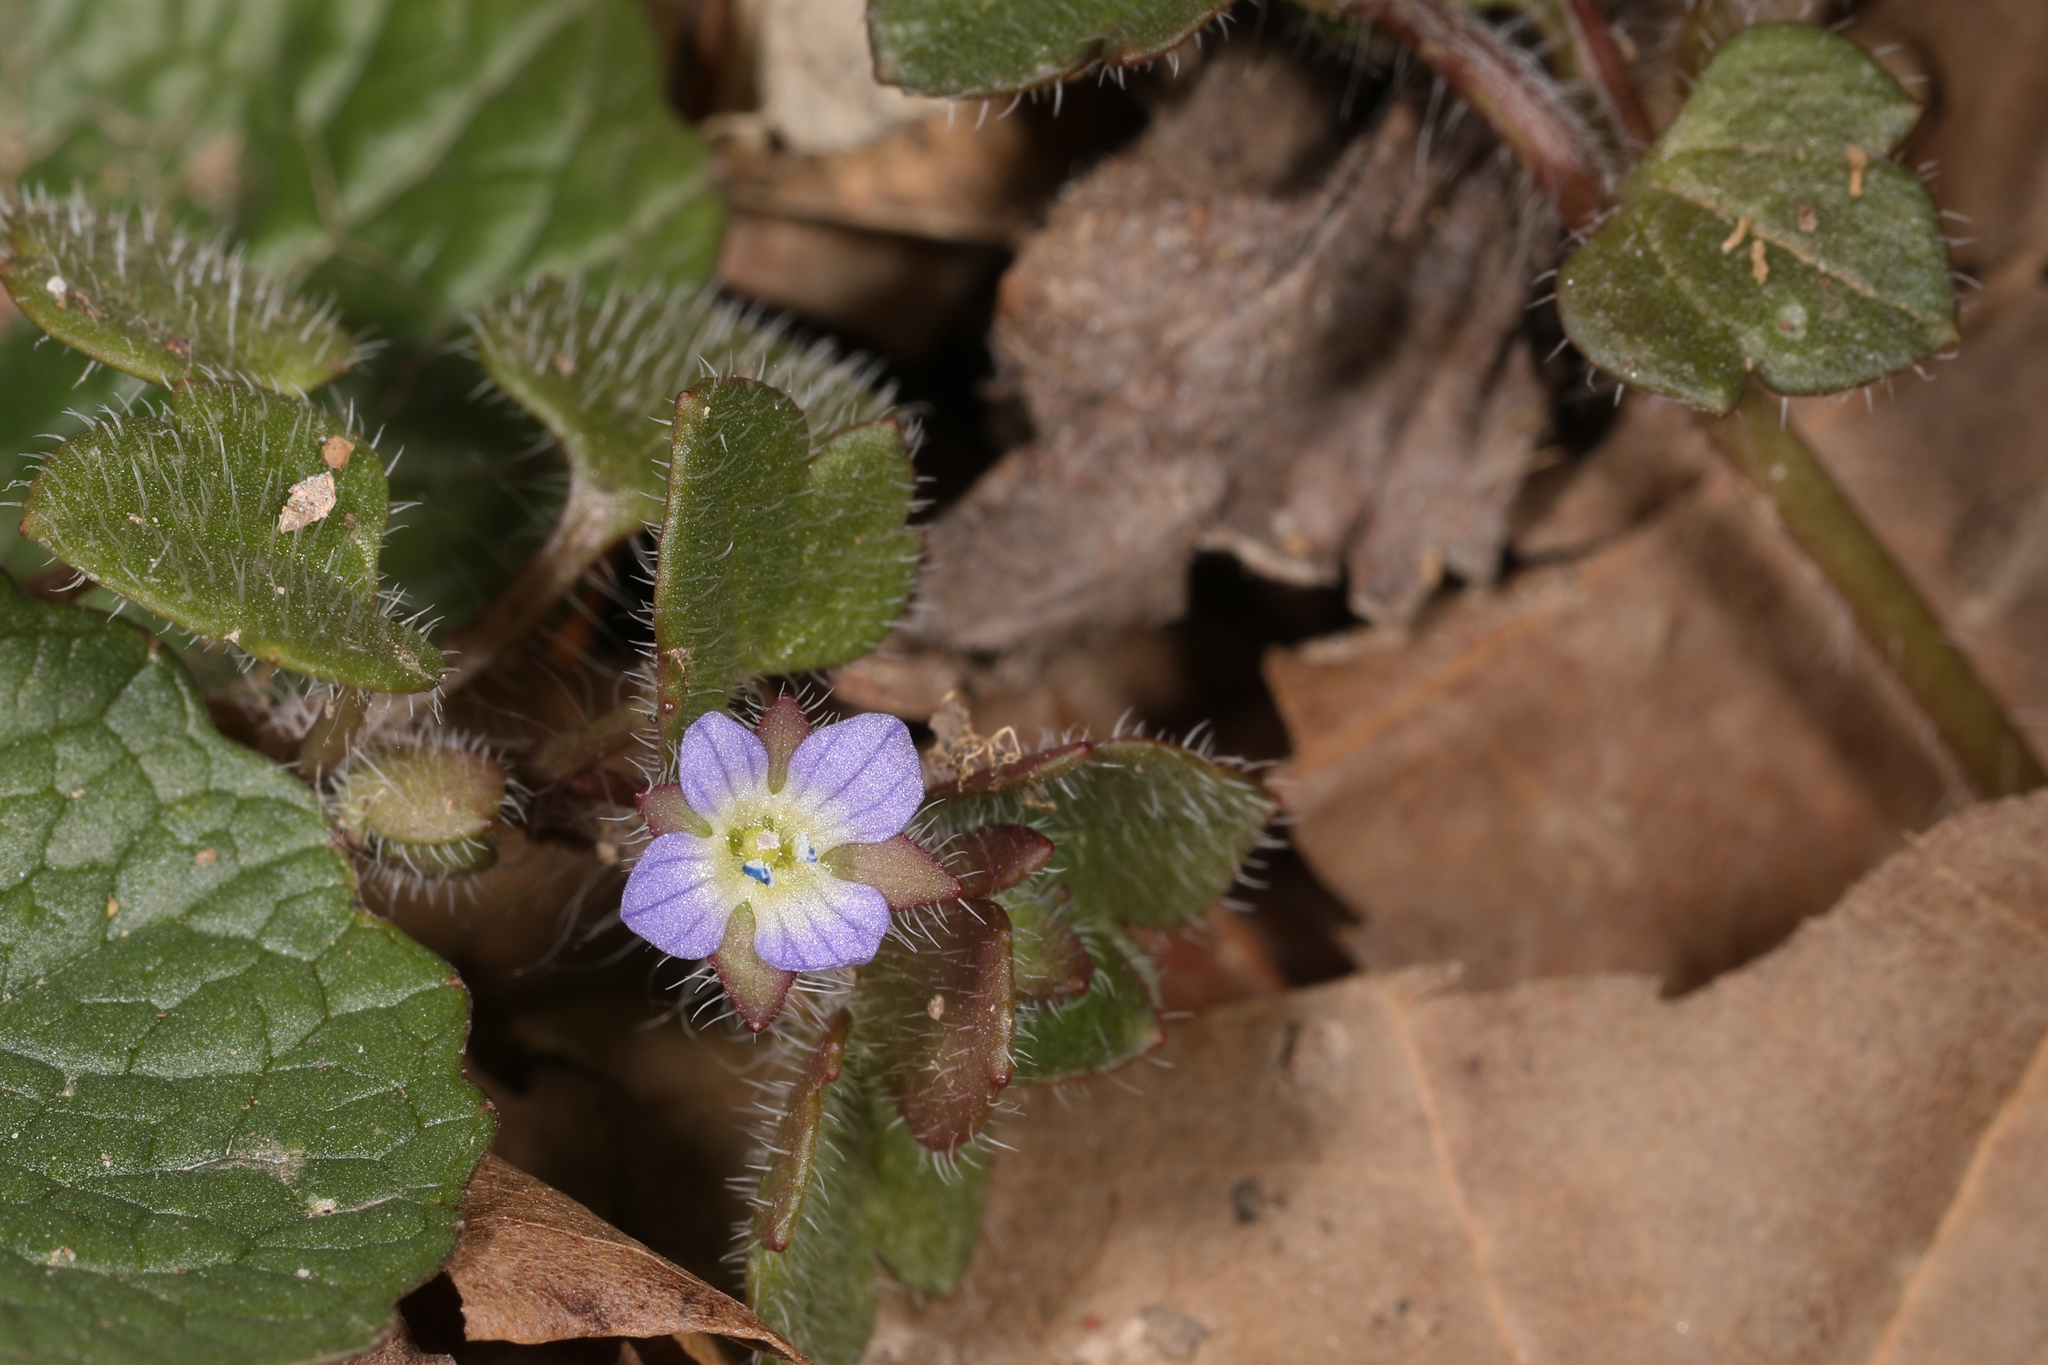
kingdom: Plantae
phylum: Tracheophyta
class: Magnoliopsida
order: Lamiales
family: Plantaginaceae
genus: Veronica
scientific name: Veronica hederifolia
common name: Ivy-leaved speedwell
